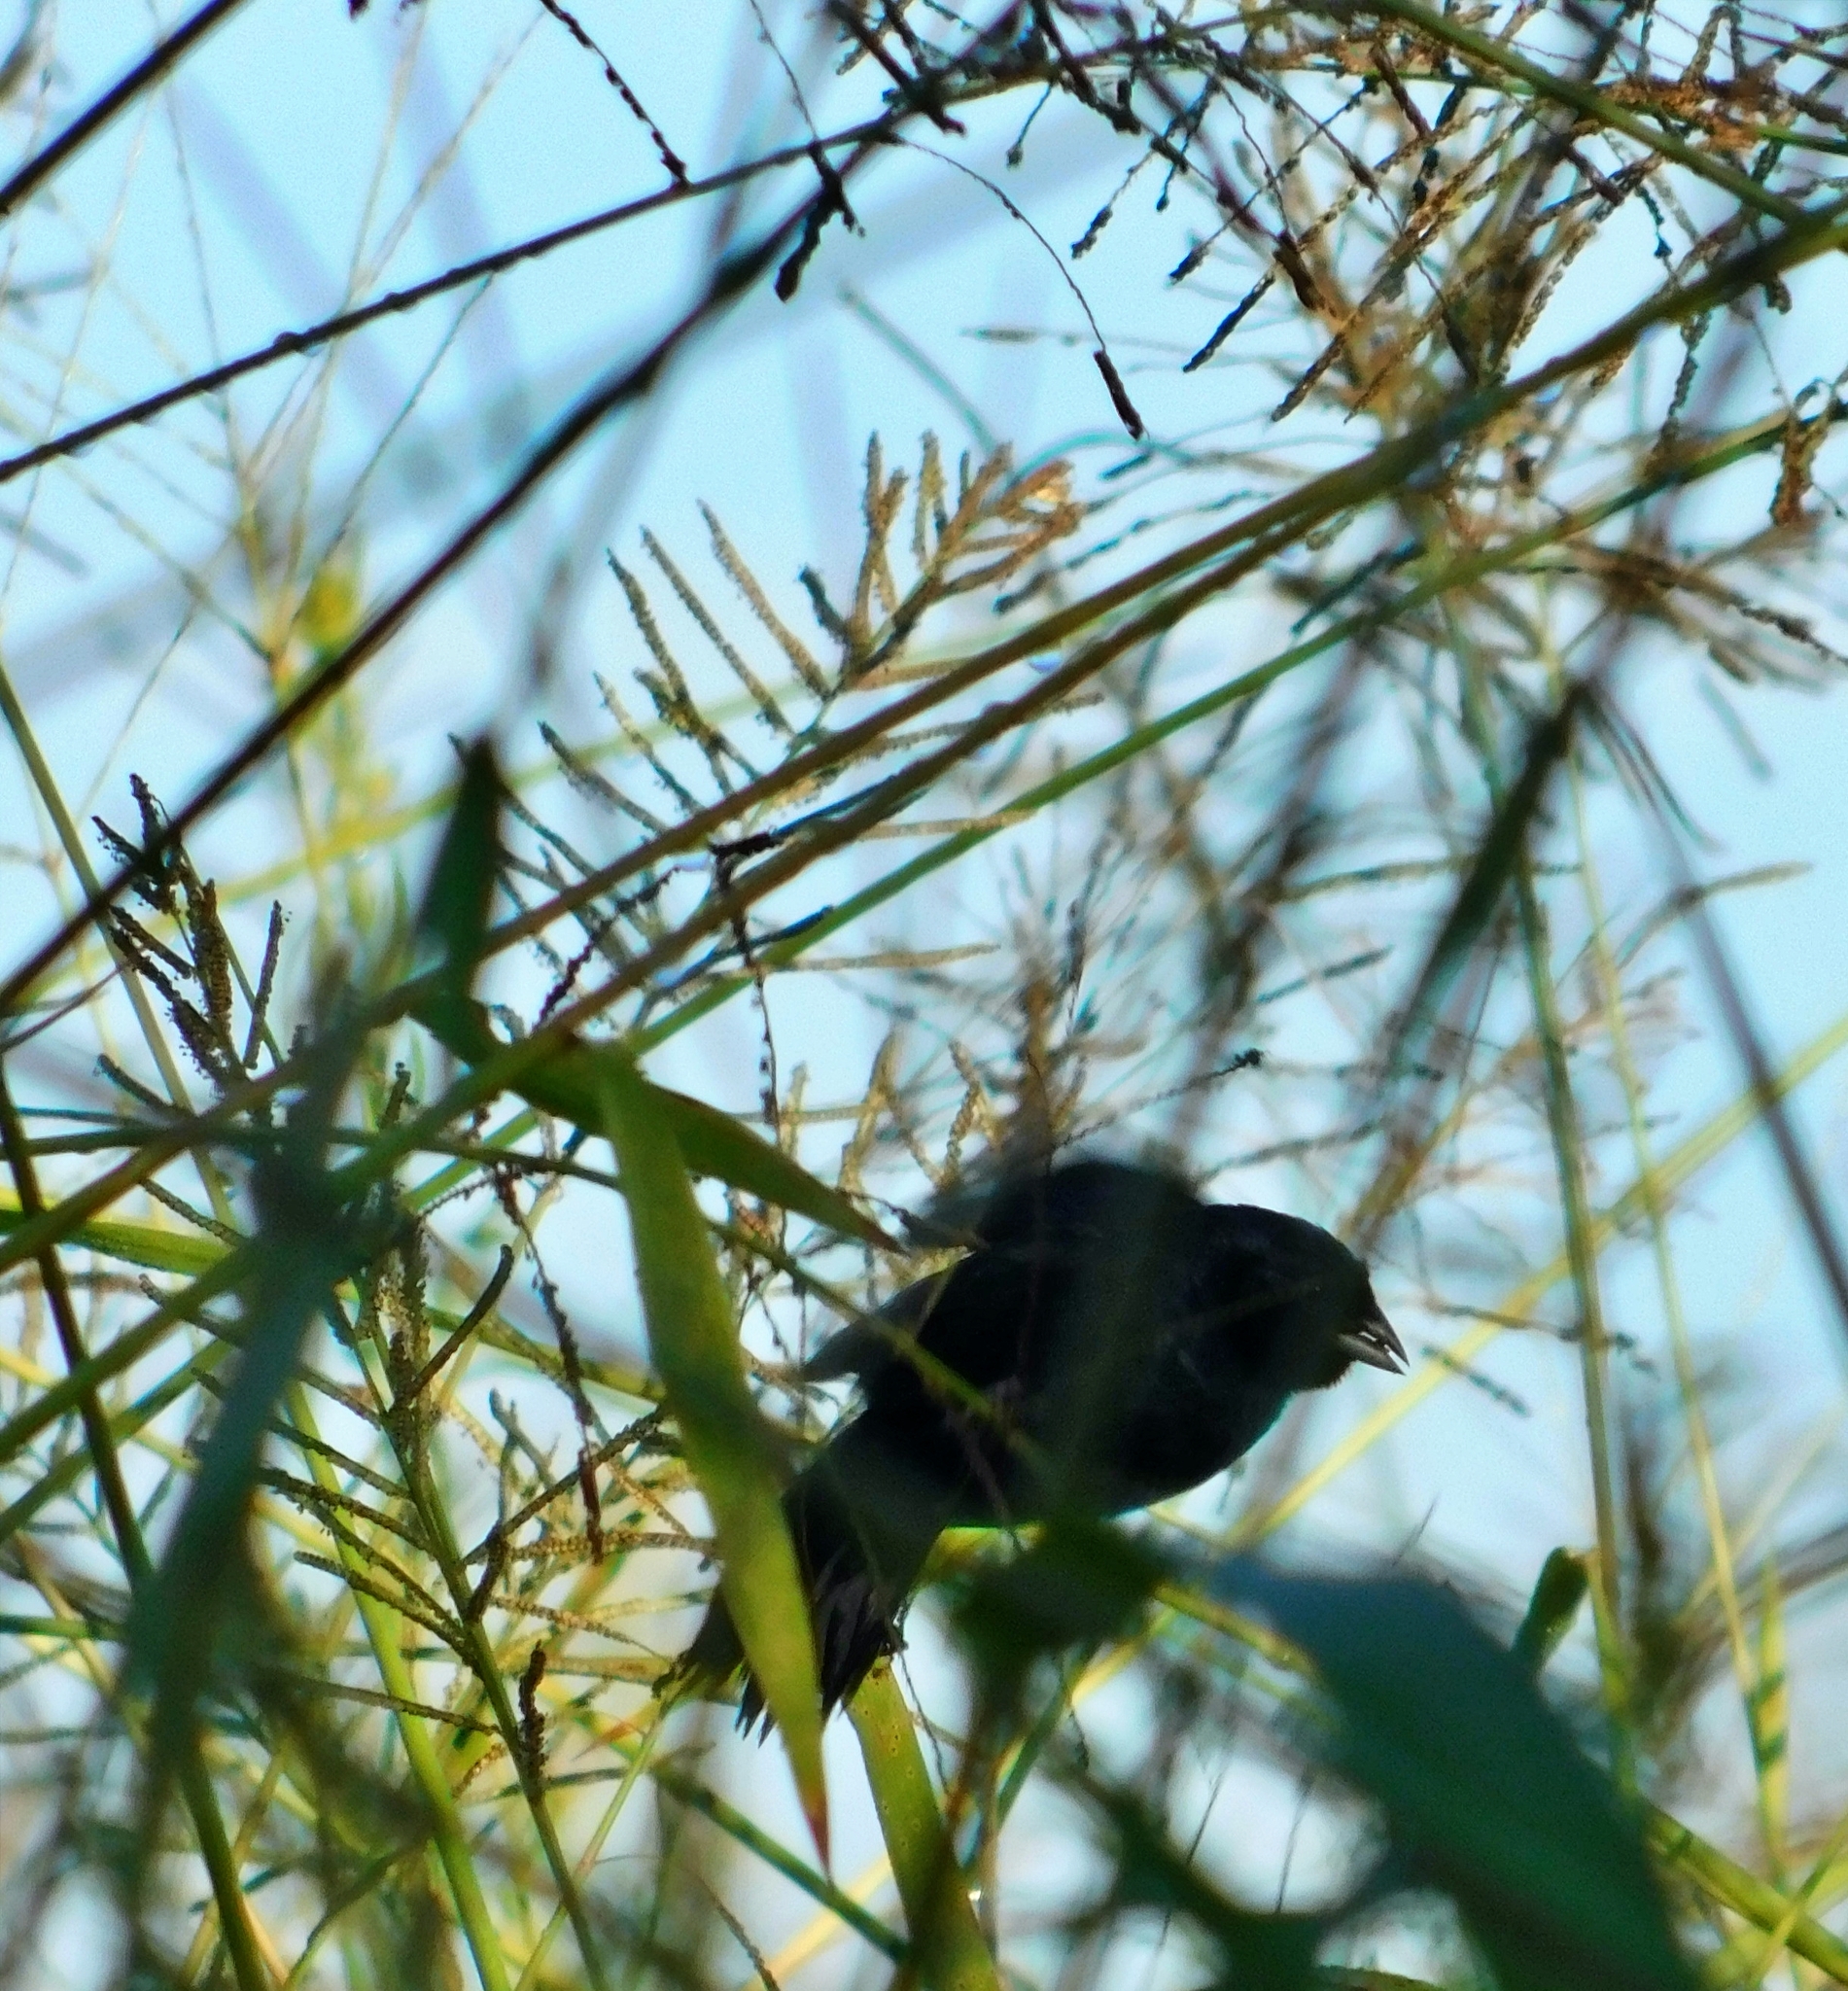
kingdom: Animalia
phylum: Chordata
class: Aves
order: Passeriformes
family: Thraupidae
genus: Volatinia
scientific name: Volatinia jacarina
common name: Blue-black grassquit
